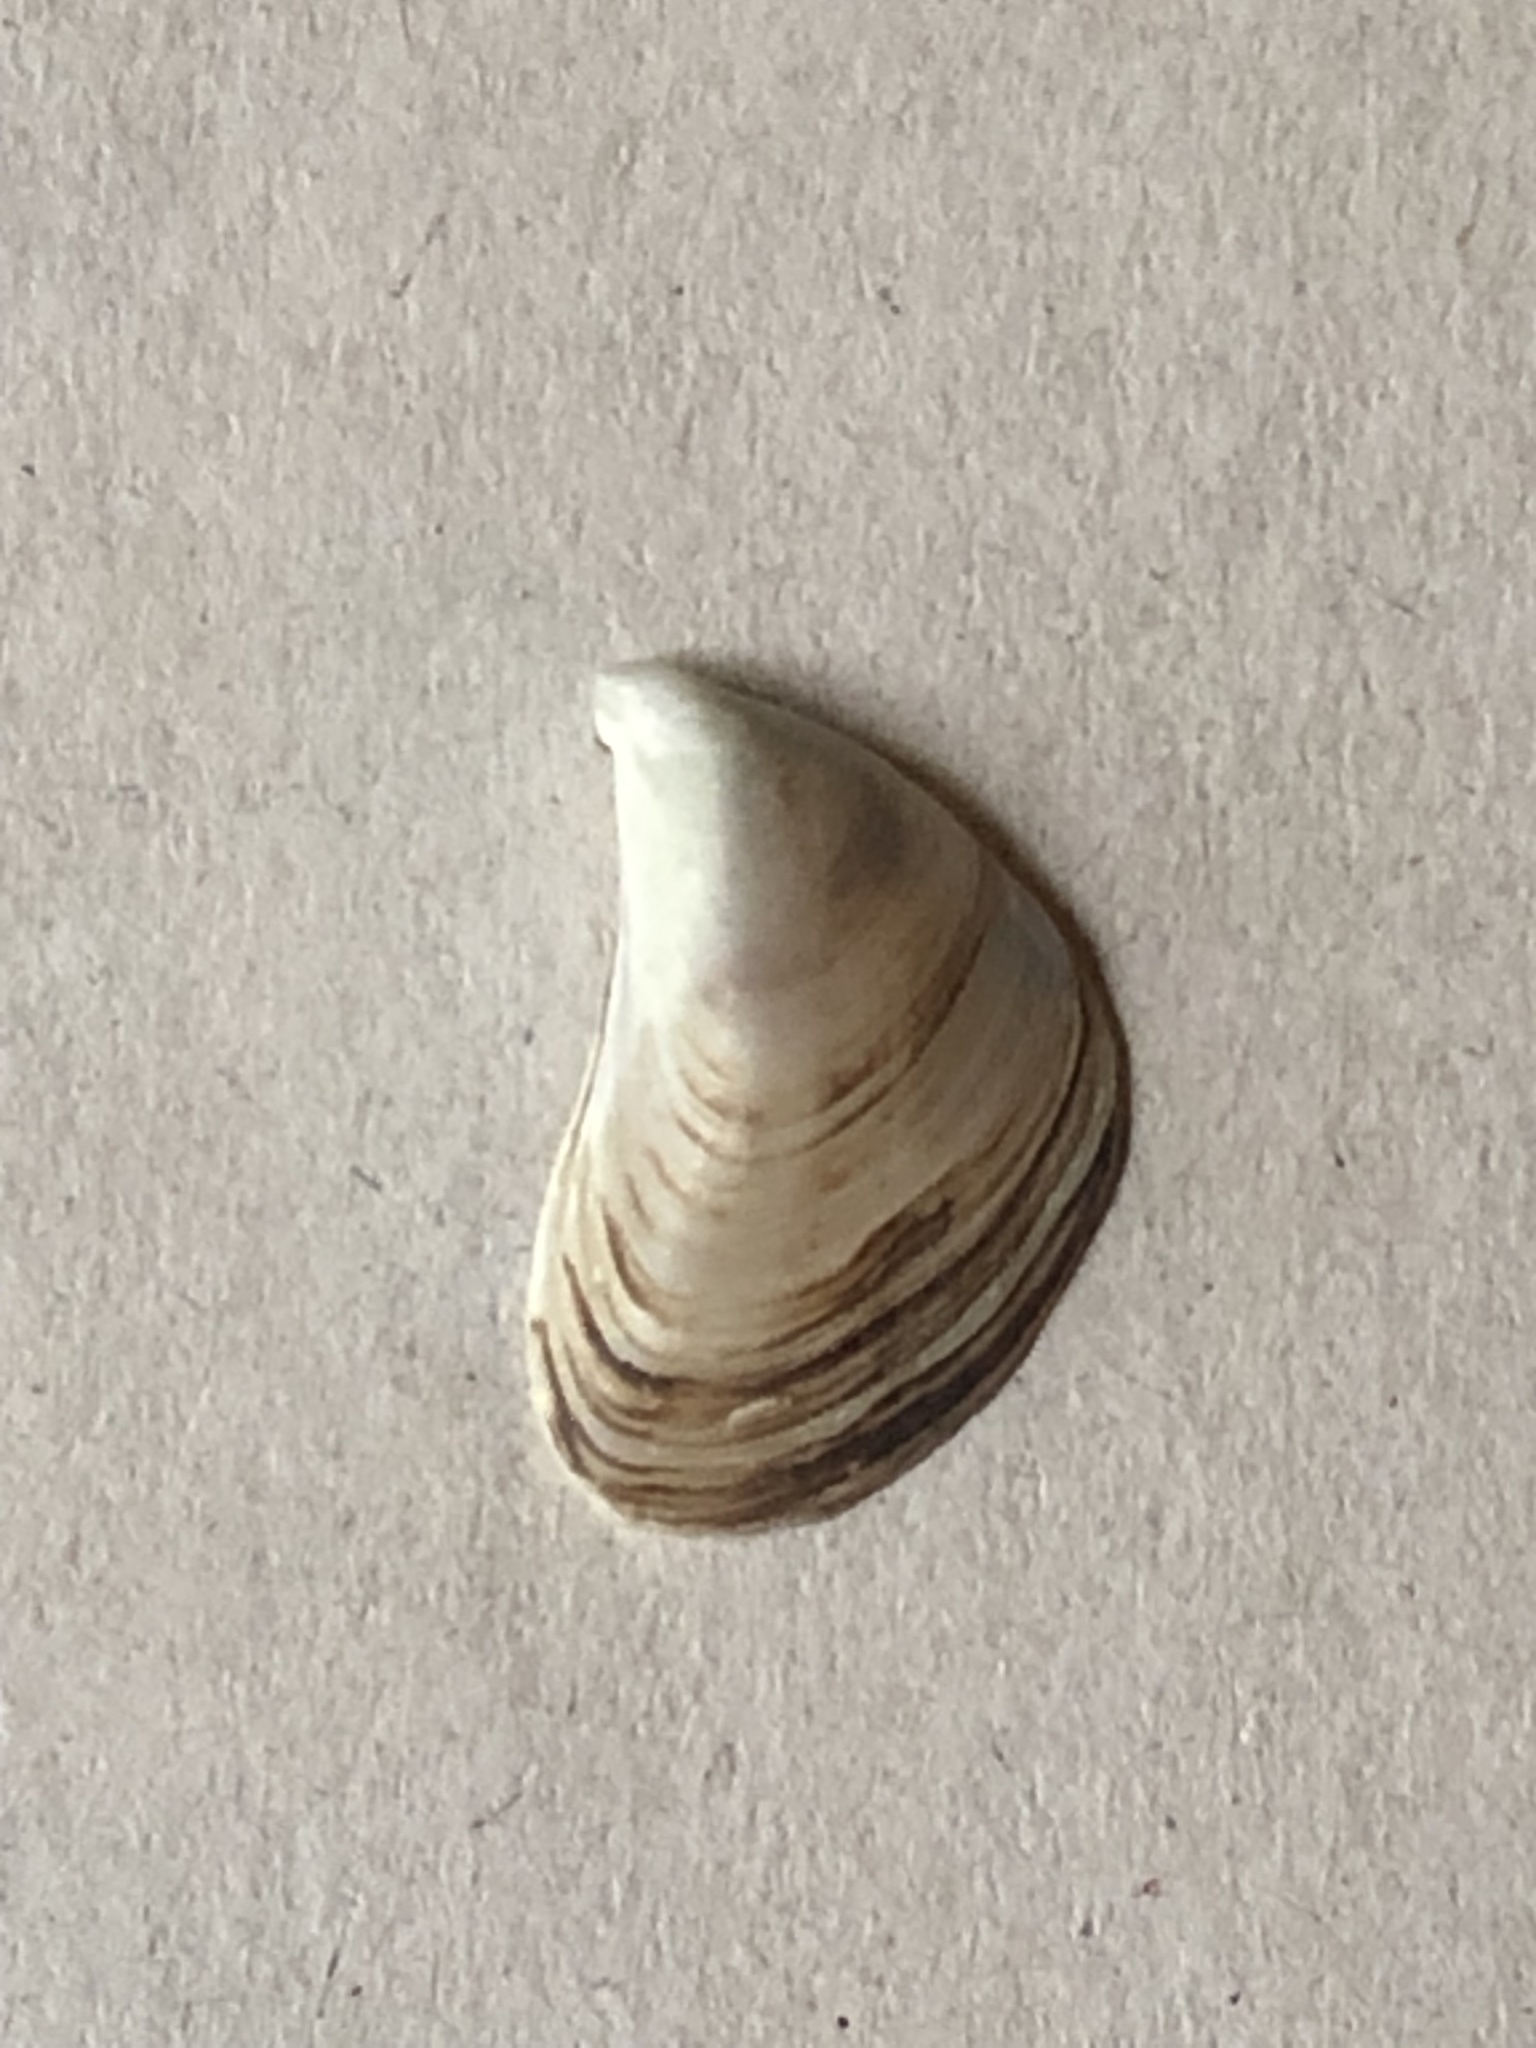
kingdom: Animalia
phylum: Mollusca
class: Bivalvia
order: Myida
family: Dreissenidae
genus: Dreissena
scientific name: Dreissena bugensis
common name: Quagga mussel
